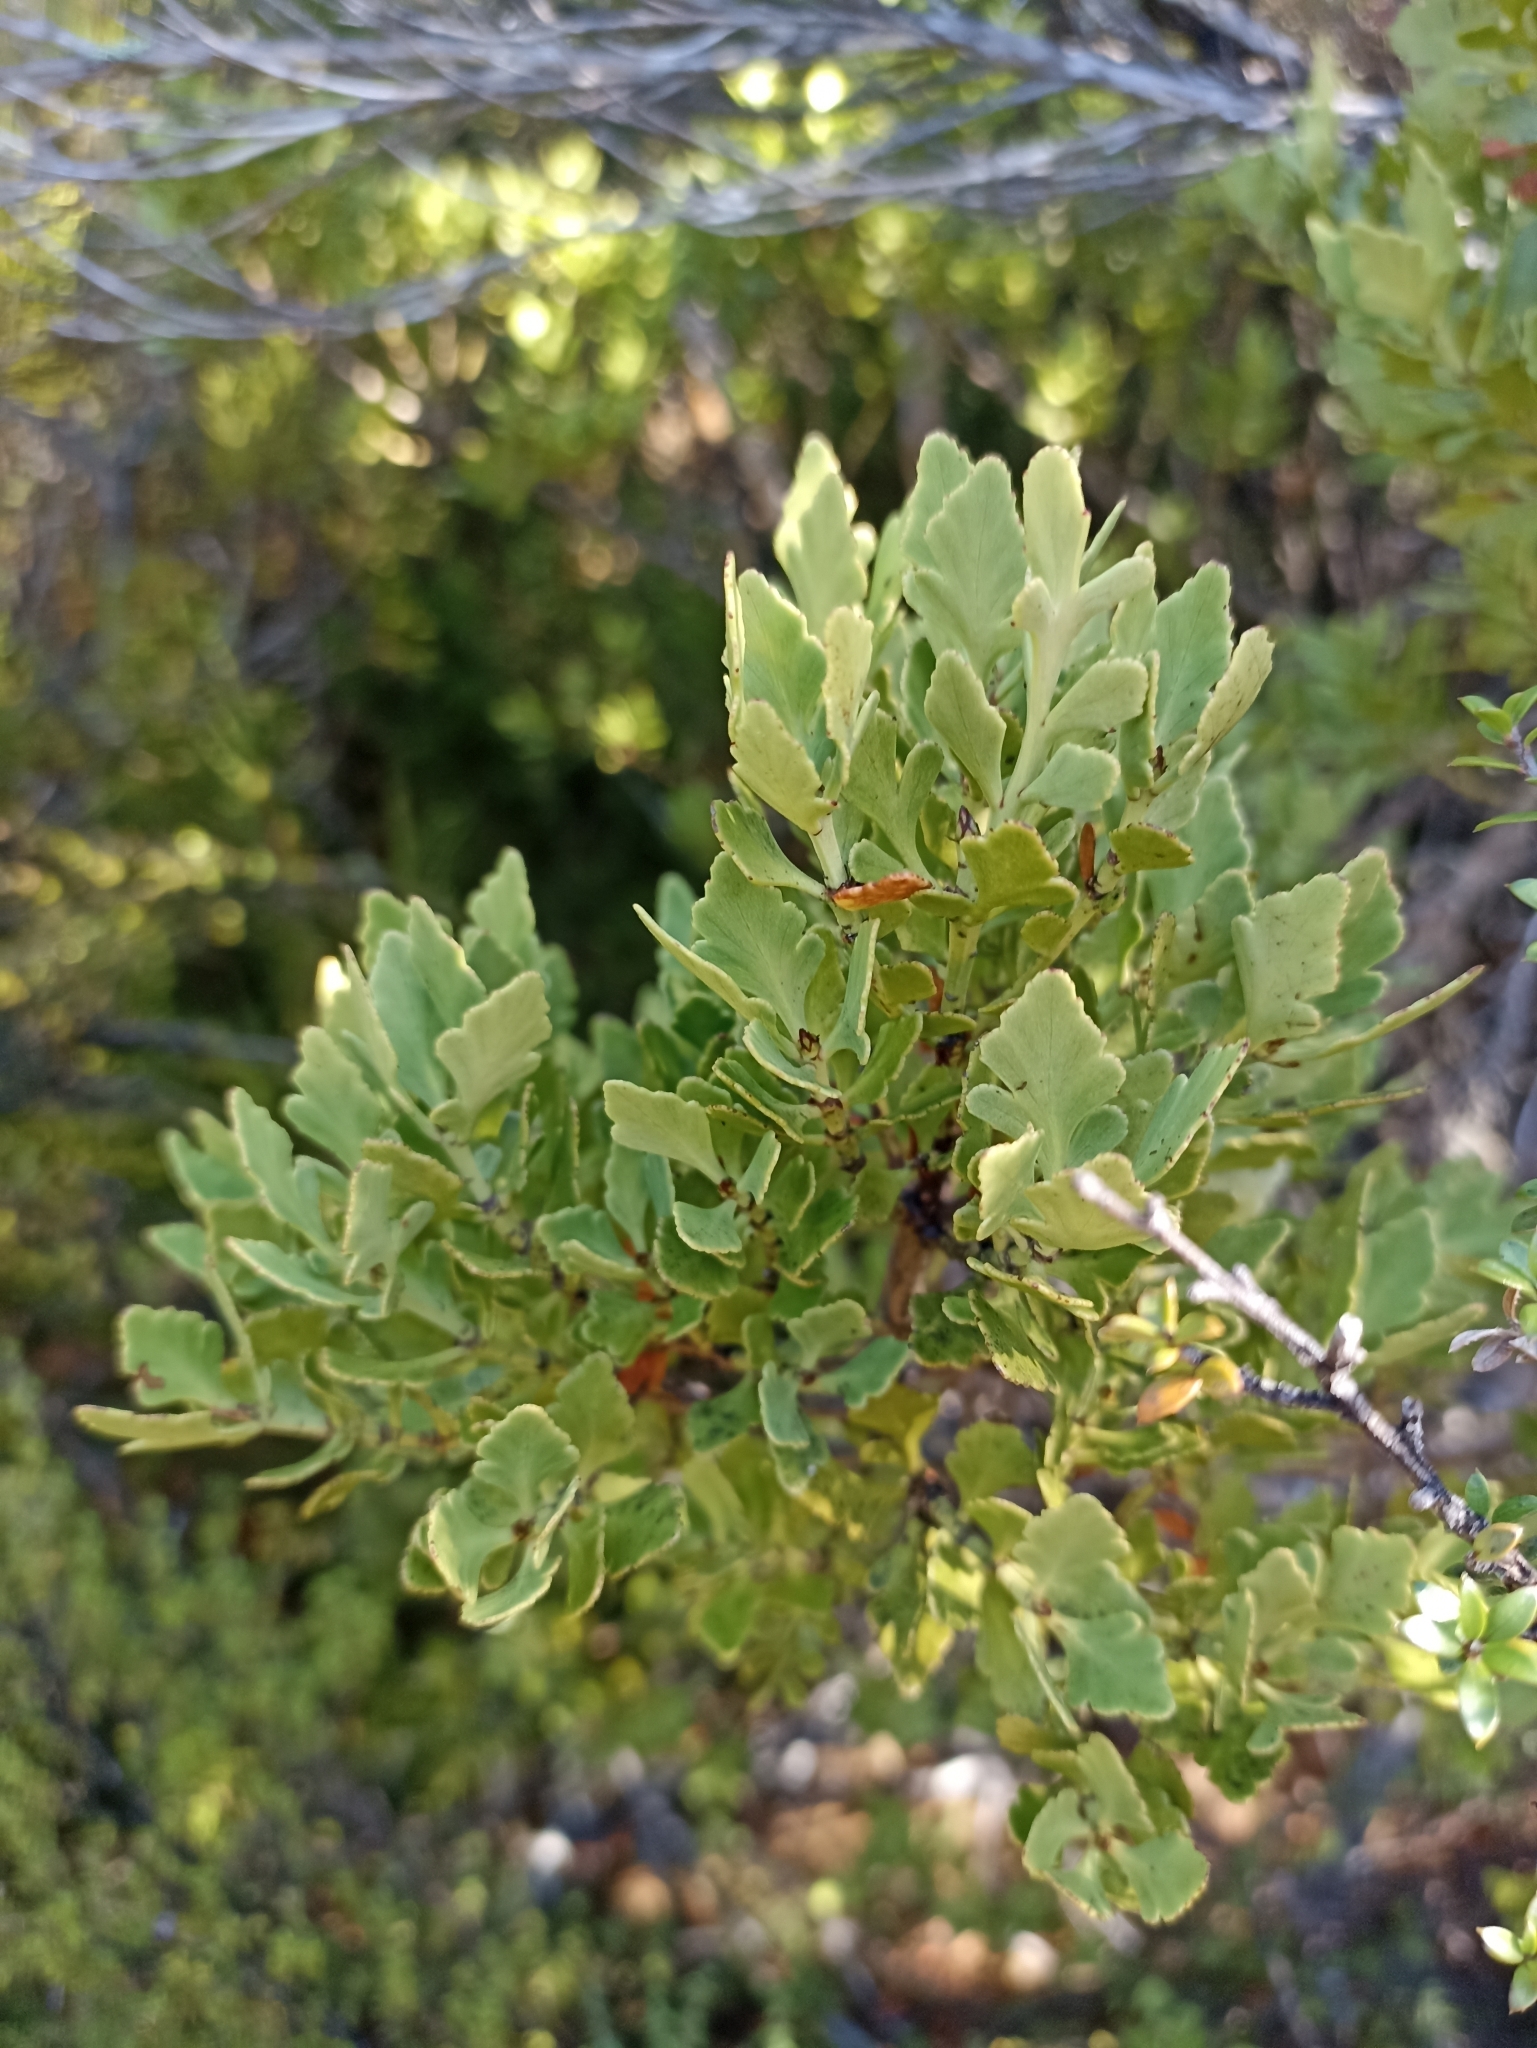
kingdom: Plantae
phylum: Tracheophyta
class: Pinopsida
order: Pinales
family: Phyllocladaceae
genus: Phyllocladus
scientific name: Phyllocladus trichomanoides
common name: Celery pine
